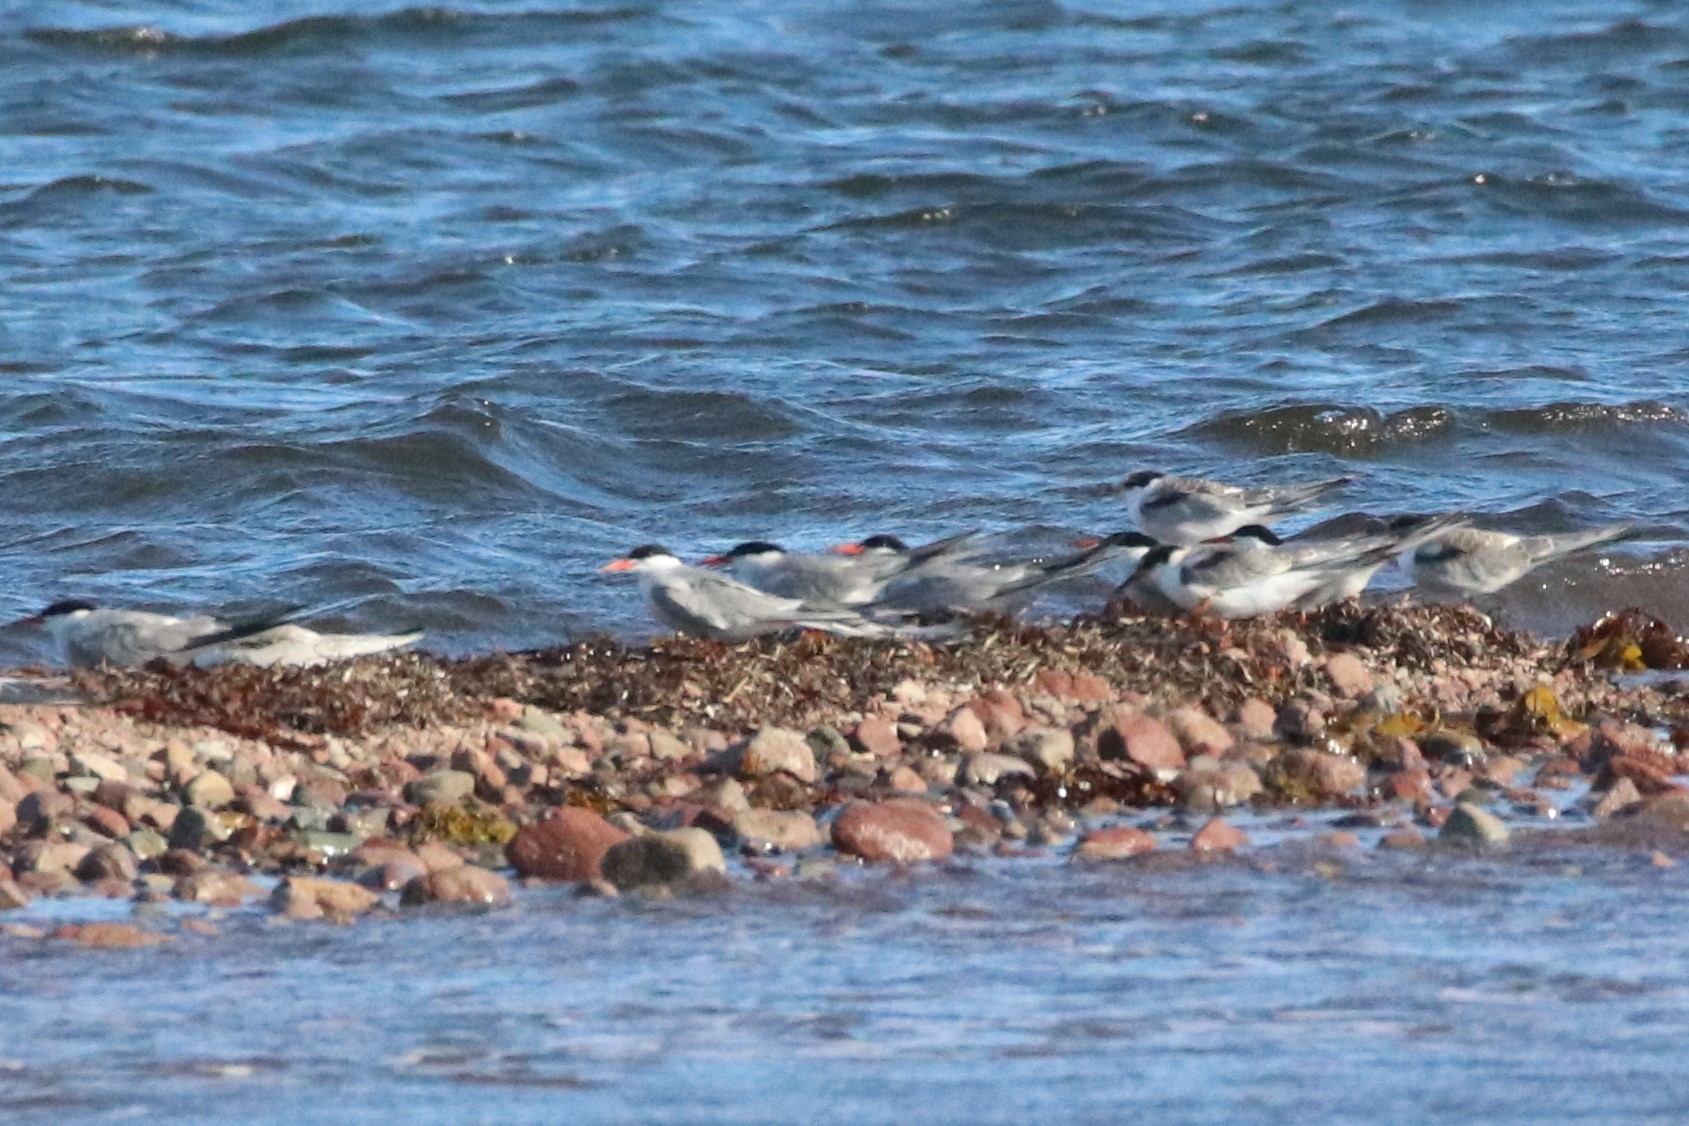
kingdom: Animalia
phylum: Chordata
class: Aves
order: Charadriiformes
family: Laridae
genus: Sterna
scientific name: Sterna hirundo
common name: Common tern
